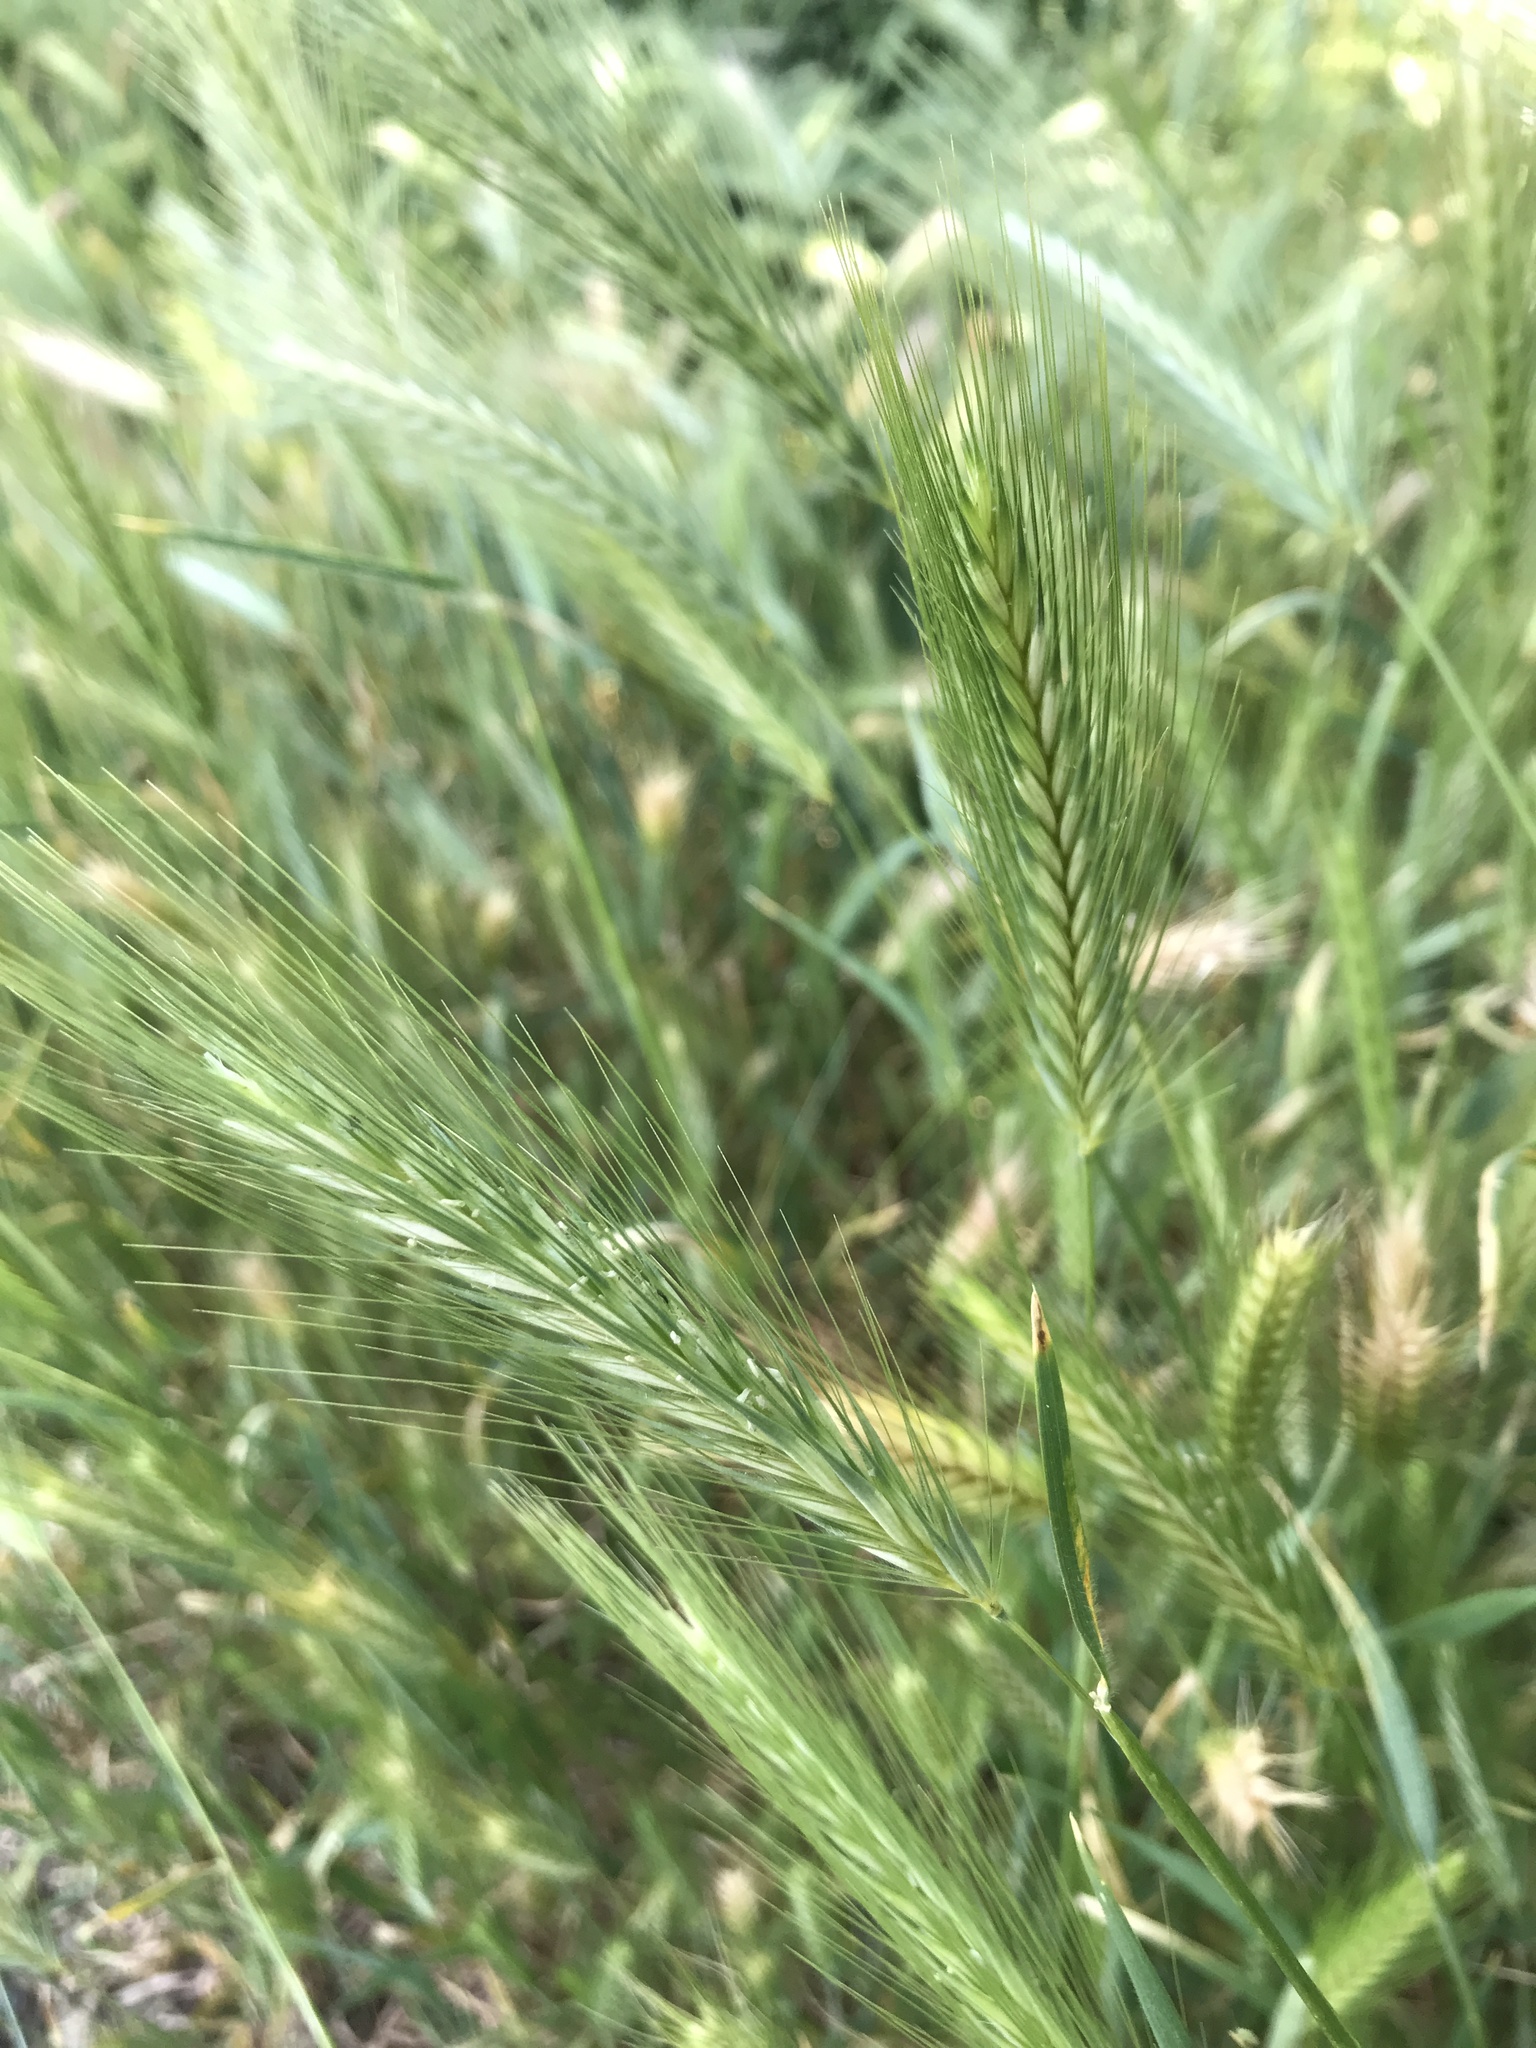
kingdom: Plantae
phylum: Tracheophyta
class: Liliopsida
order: Poales
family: Poaceae
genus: Hordeum
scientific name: Hordeum murinum
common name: Wall barley
